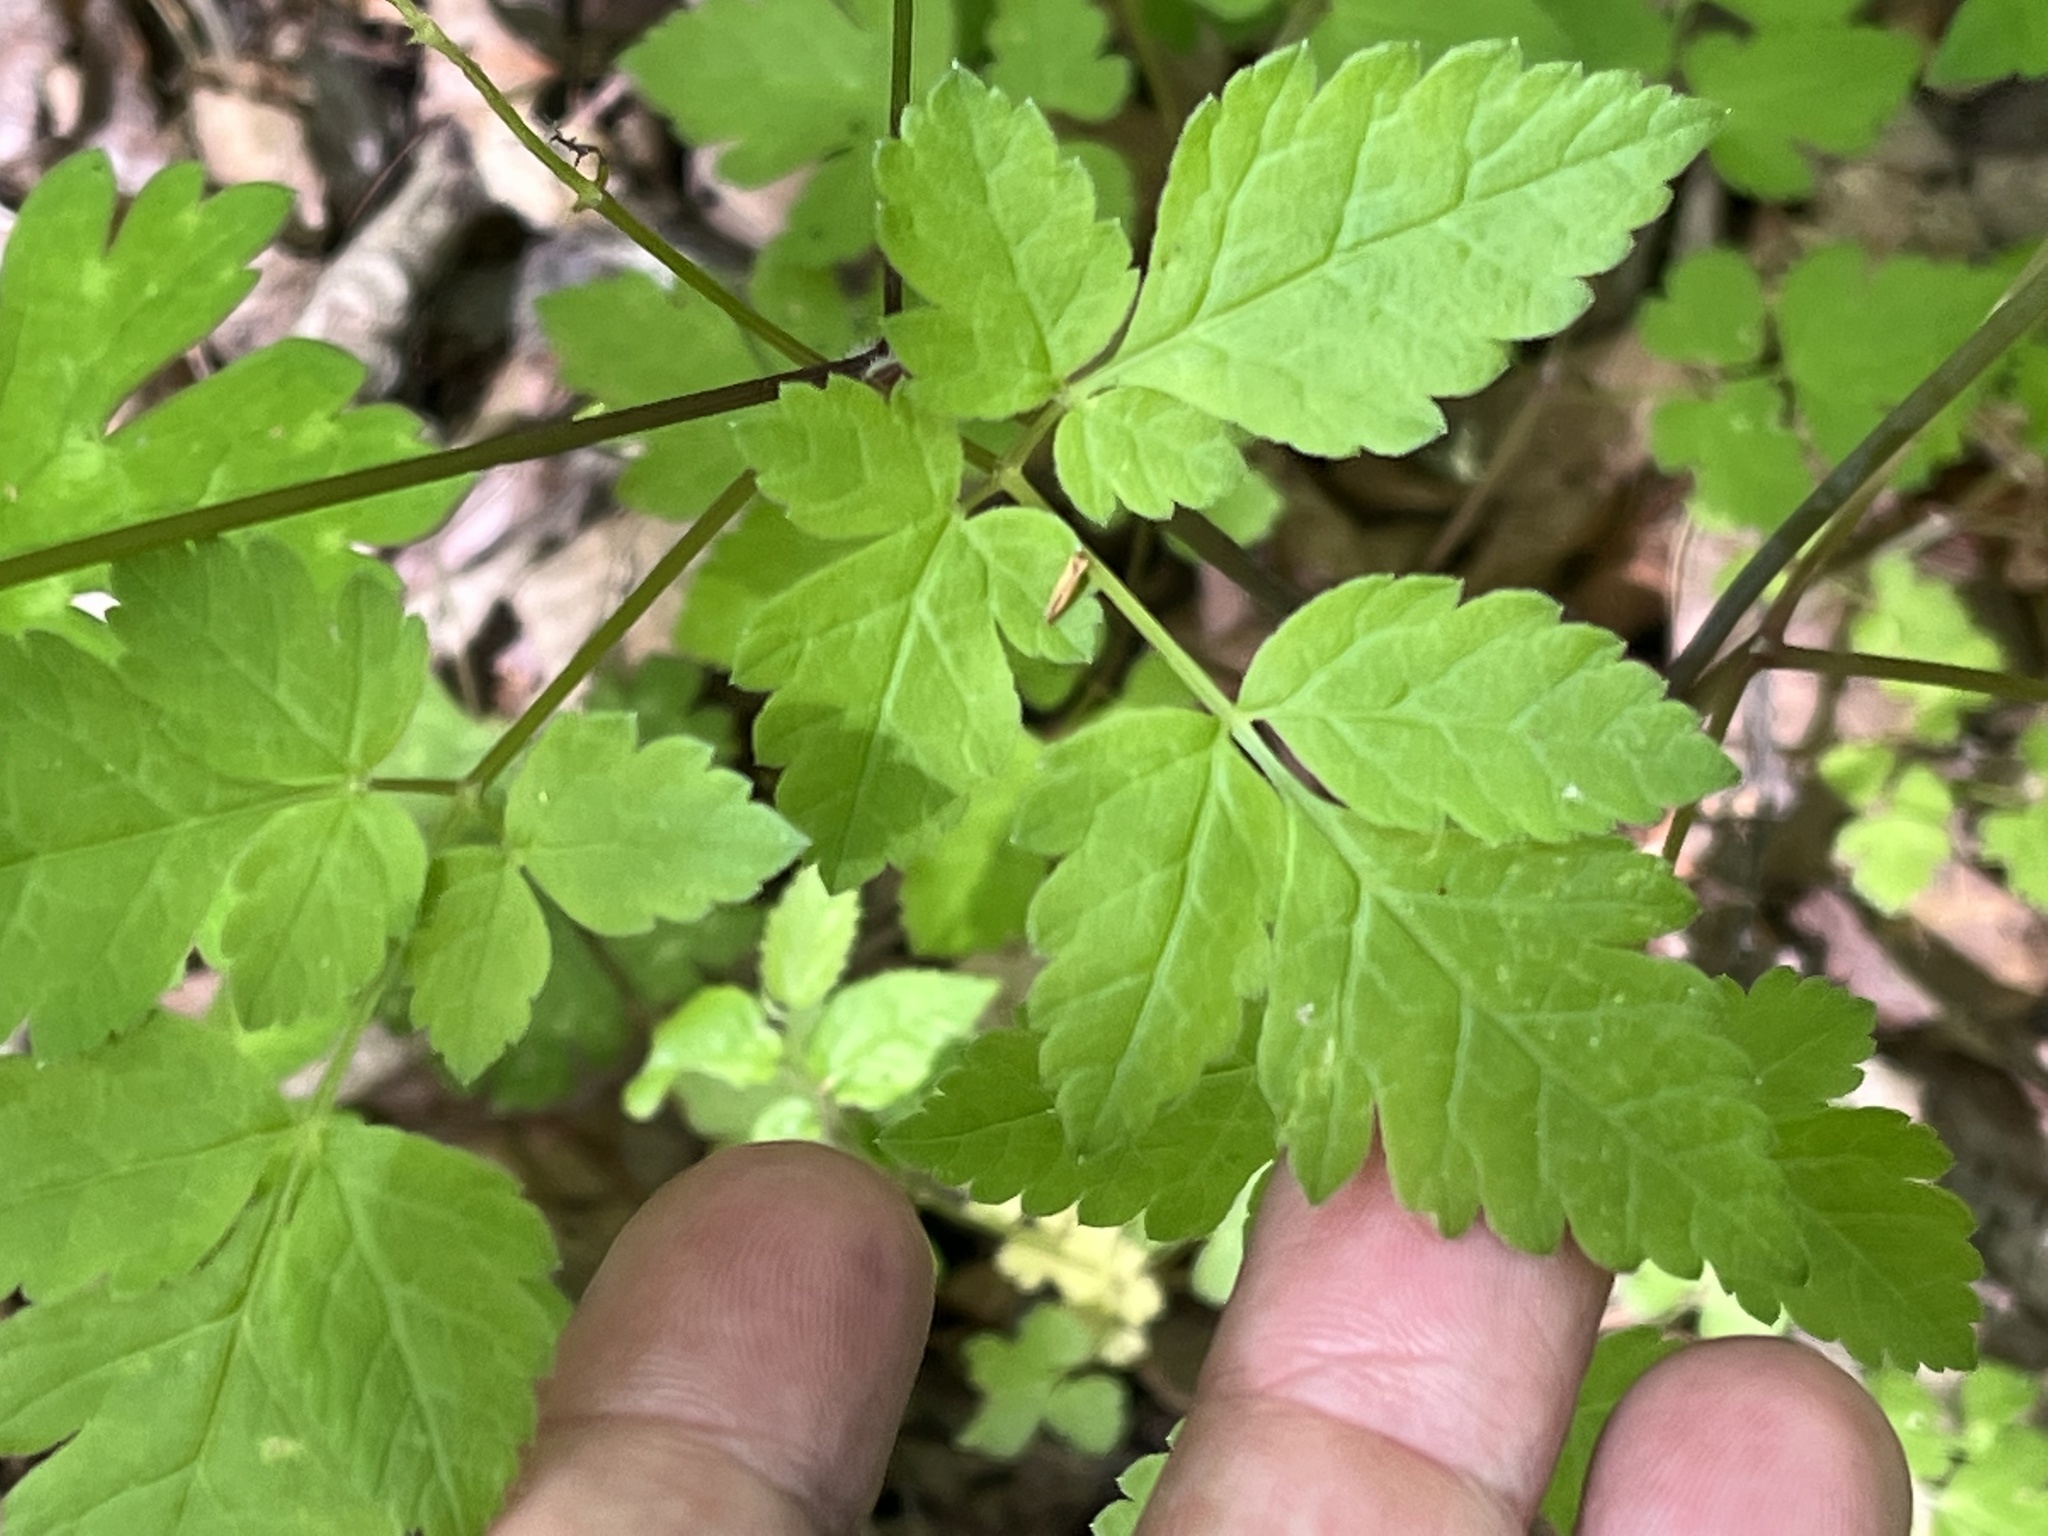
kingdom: Plantae
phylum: Tracheophyta
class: Magnoliopsida
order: Apiales
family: Apiaceae
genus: Osmorhiza
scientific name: Osmorhiza longistylis
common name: Smooth sweet cicely
